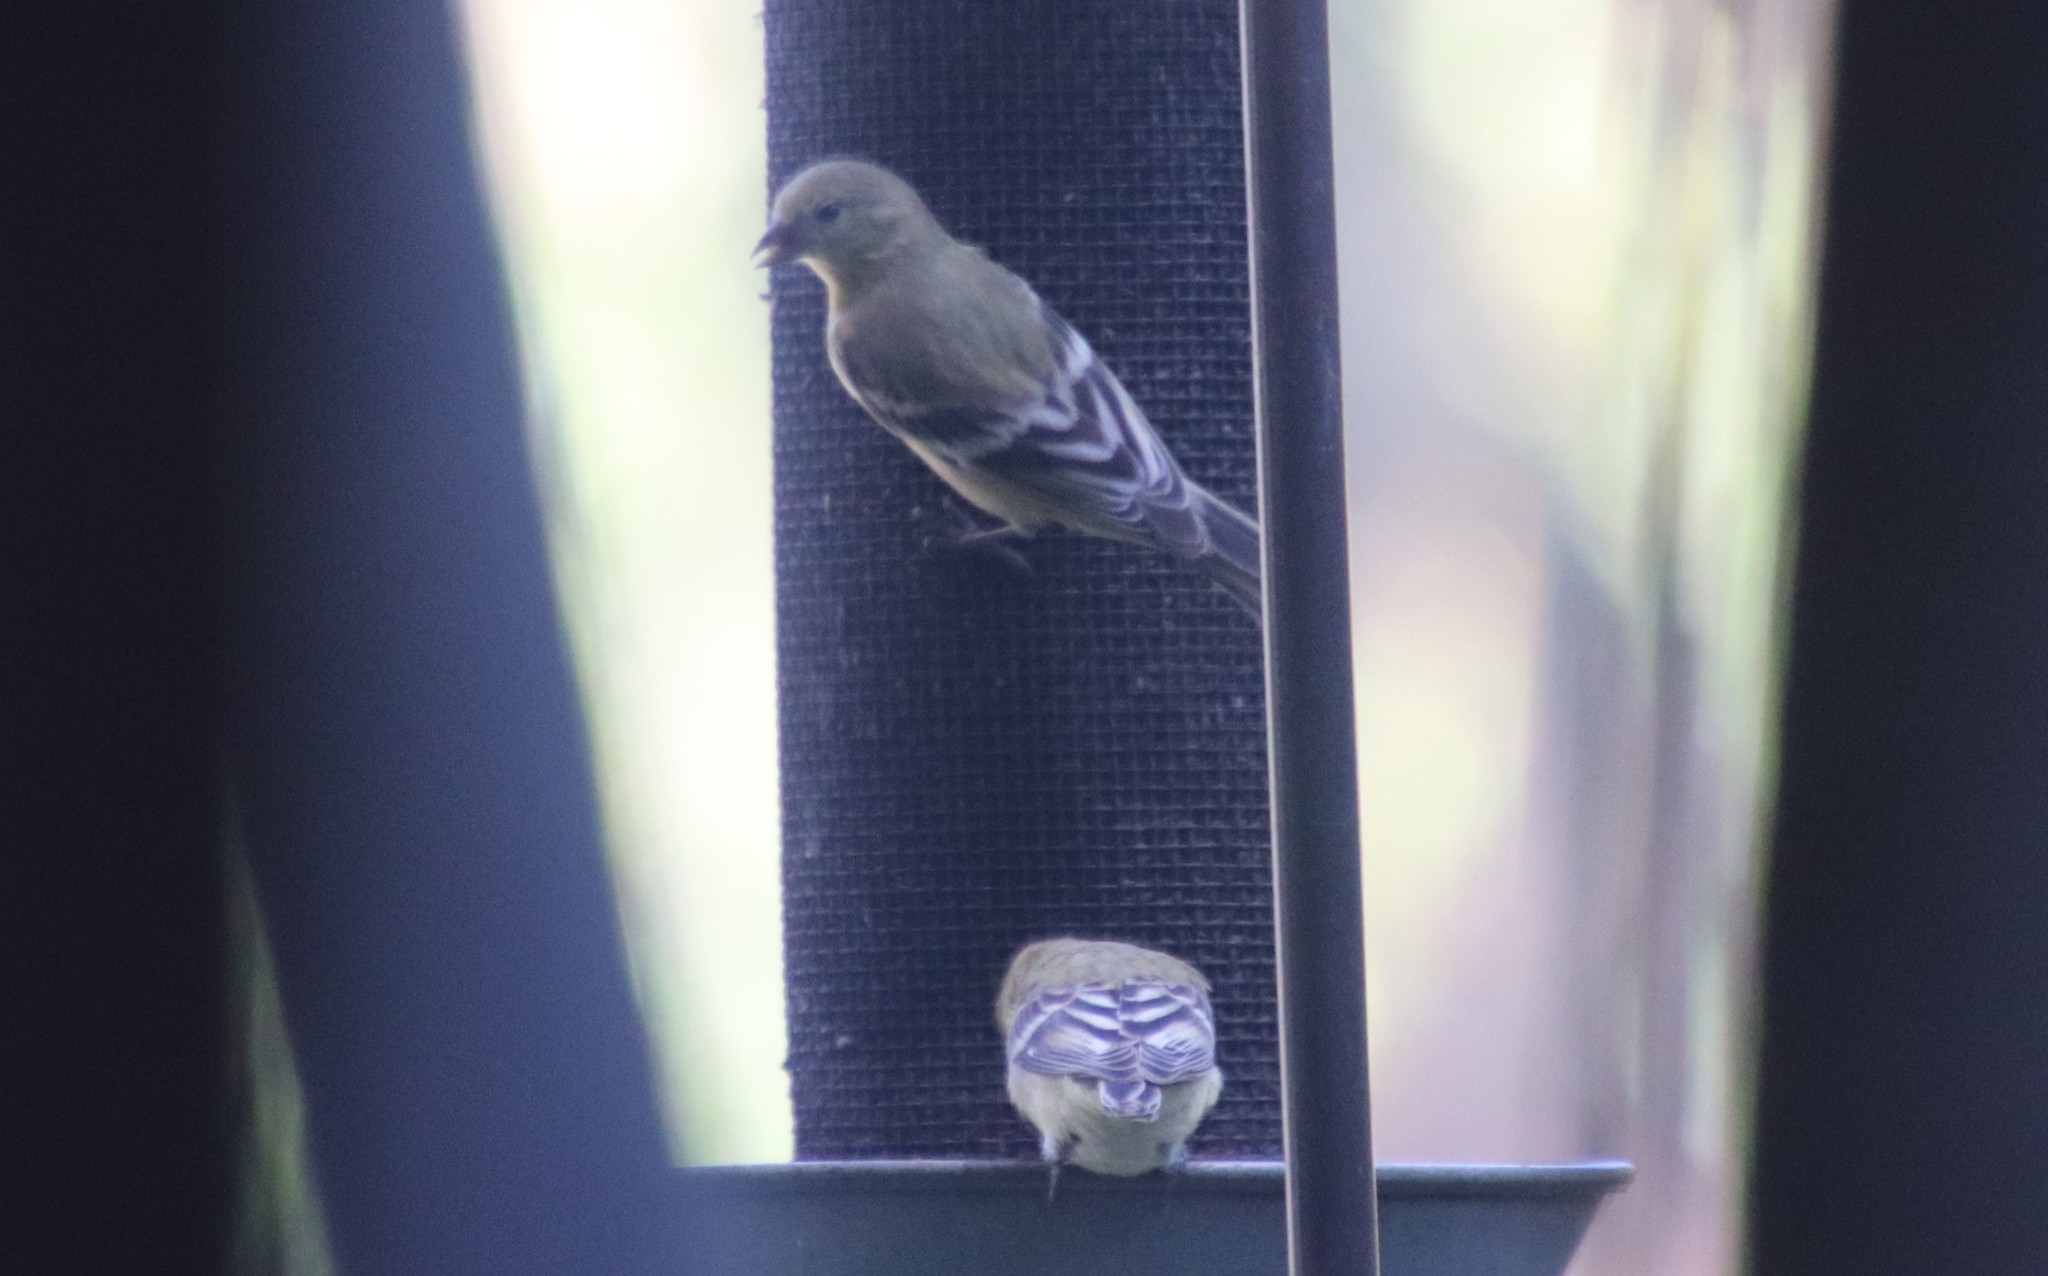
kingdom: Animalia
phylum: Chordata
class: Aves
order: Passeriformes
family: Fringillidae
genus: Spinus
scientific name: Spinus psaltria
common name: Lesser goldfinch
